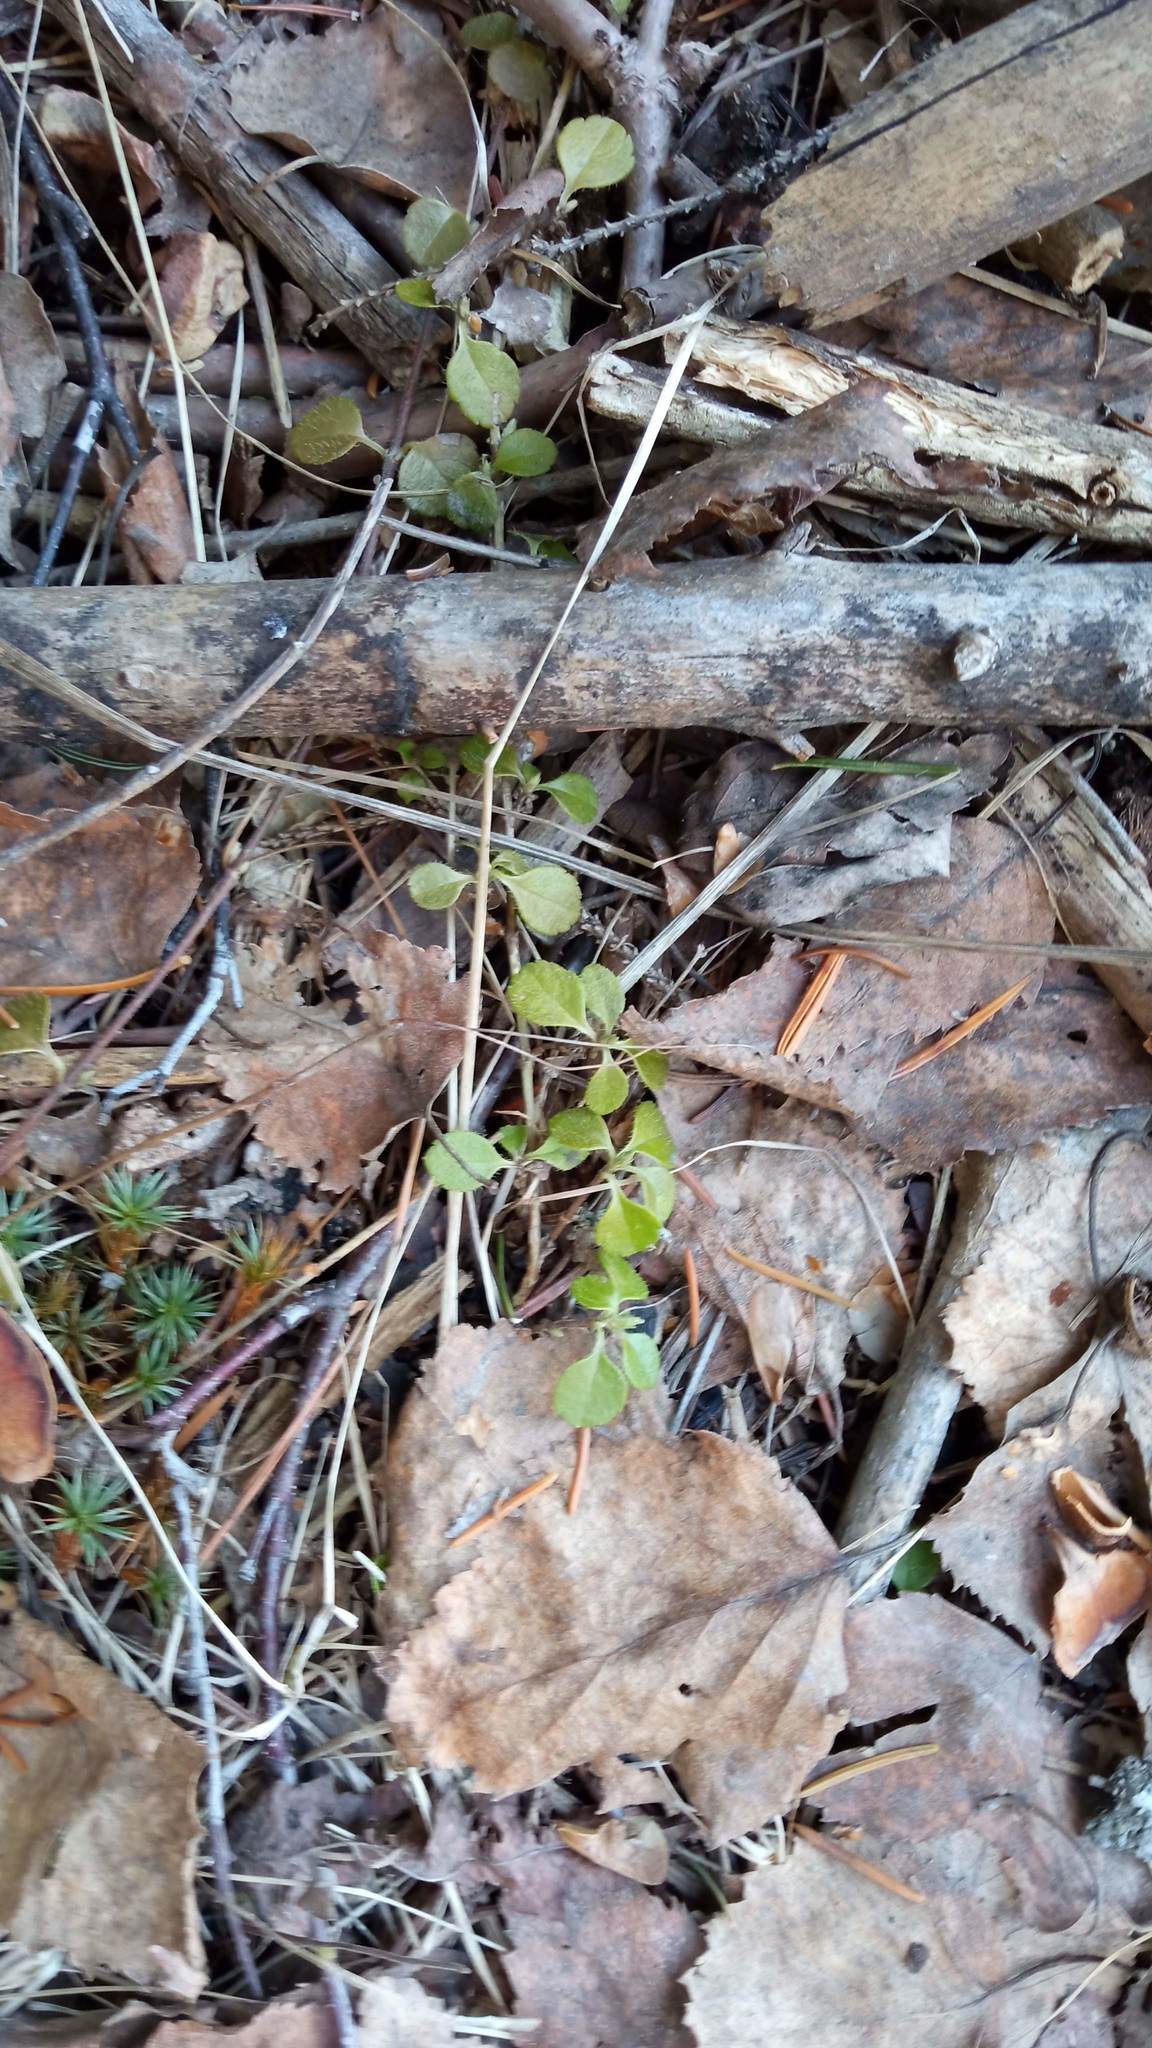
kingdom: Plantae
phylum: Tracheophyta
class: Magnoliopsida
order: Dipsacales
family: Caprifoliaceae
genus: Linnaea
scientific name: Linnaea borealis
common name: Twinflower
